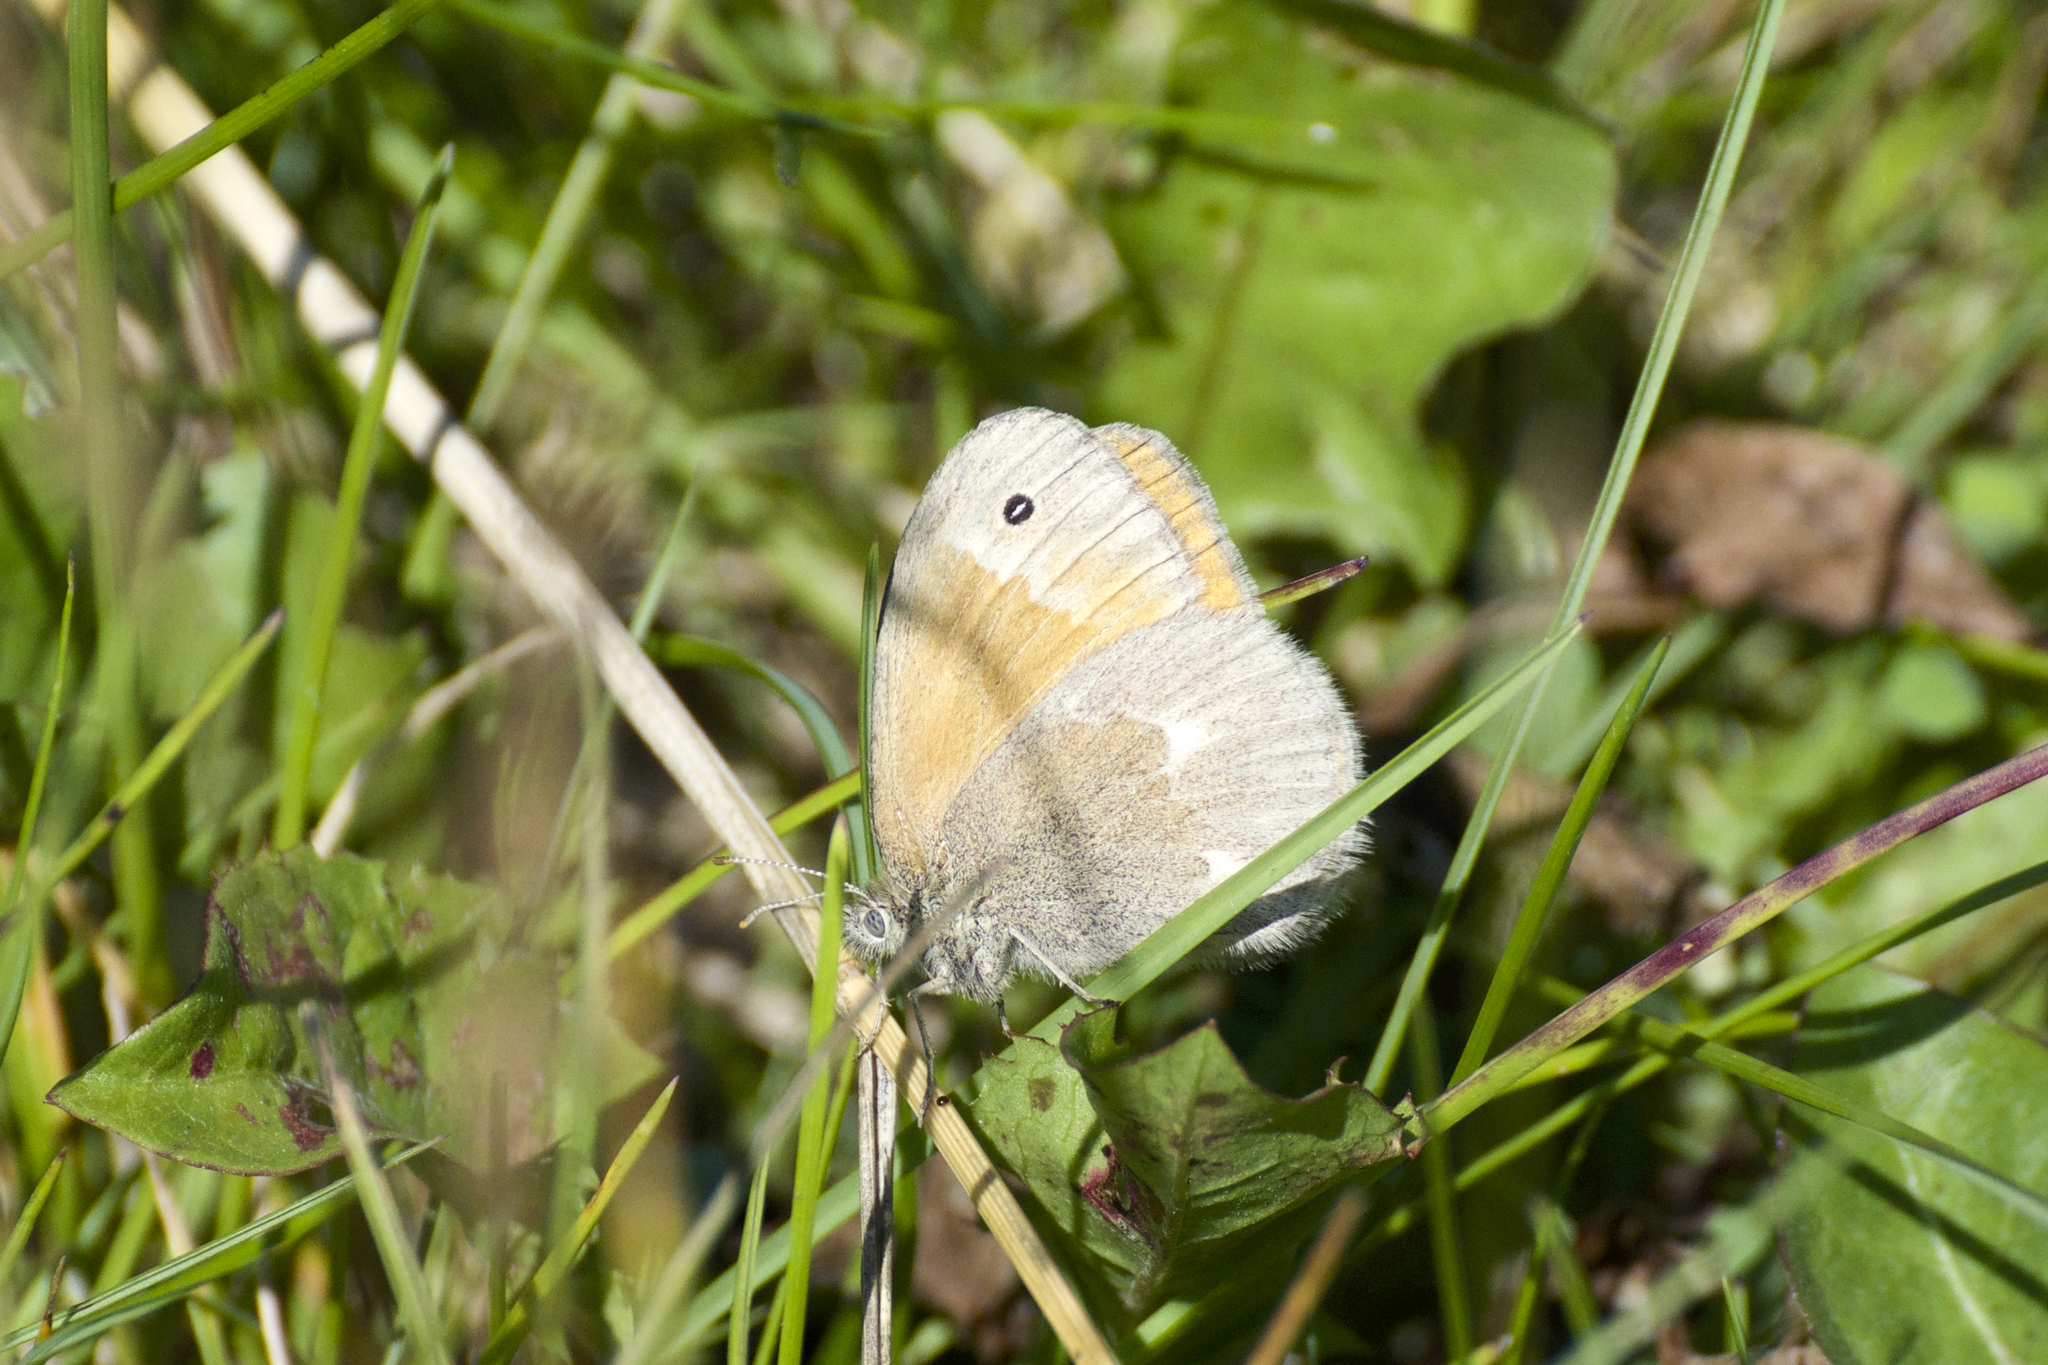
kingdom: Animalia
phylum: Arthropoda
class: Insecta
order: Lepidoptera
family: Nymphalidae
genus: Coenonympha
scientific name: Coenonympha california
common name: Common ringlet
